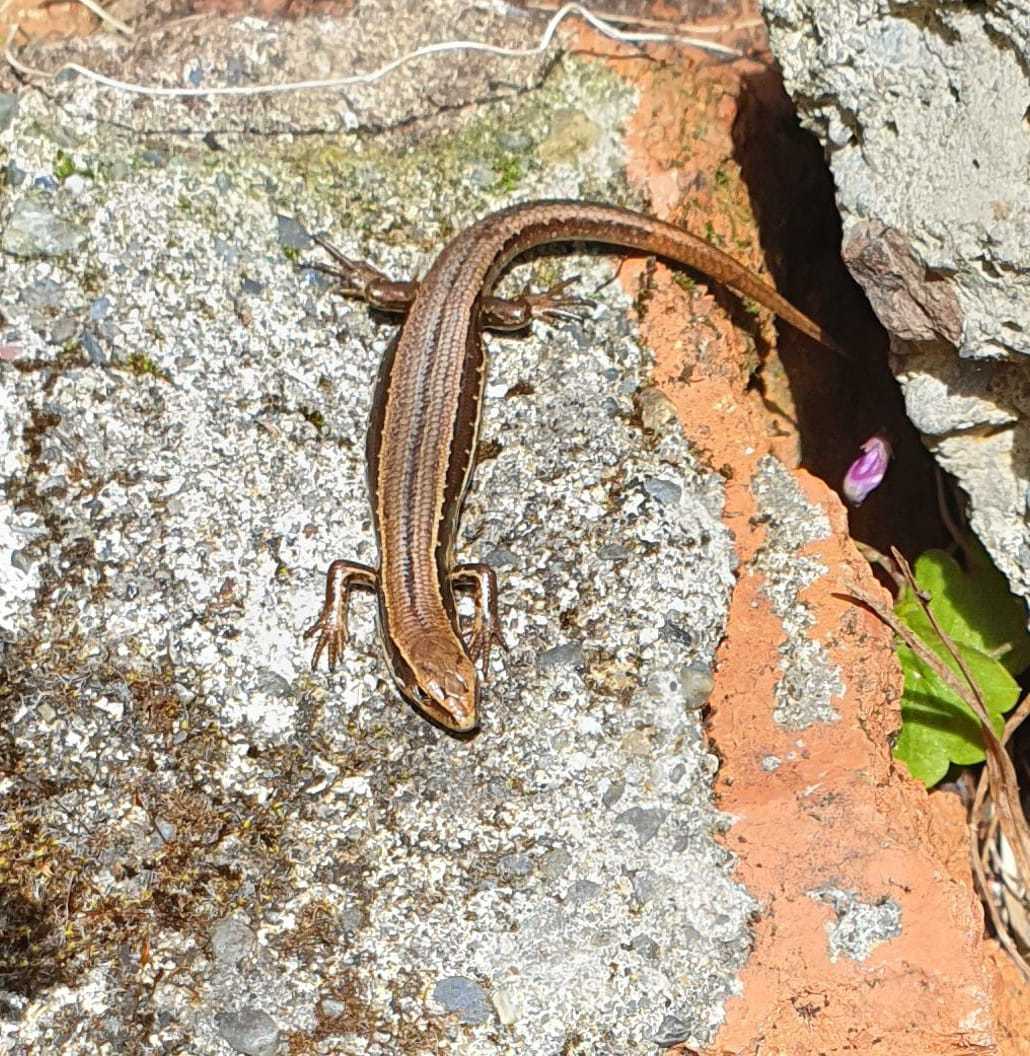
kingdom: Animalia
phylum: Chordata
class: Squamata
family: Scincidae
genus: Oligosoma
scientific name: Oligosoma polychroma
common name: Common new zealand skink
